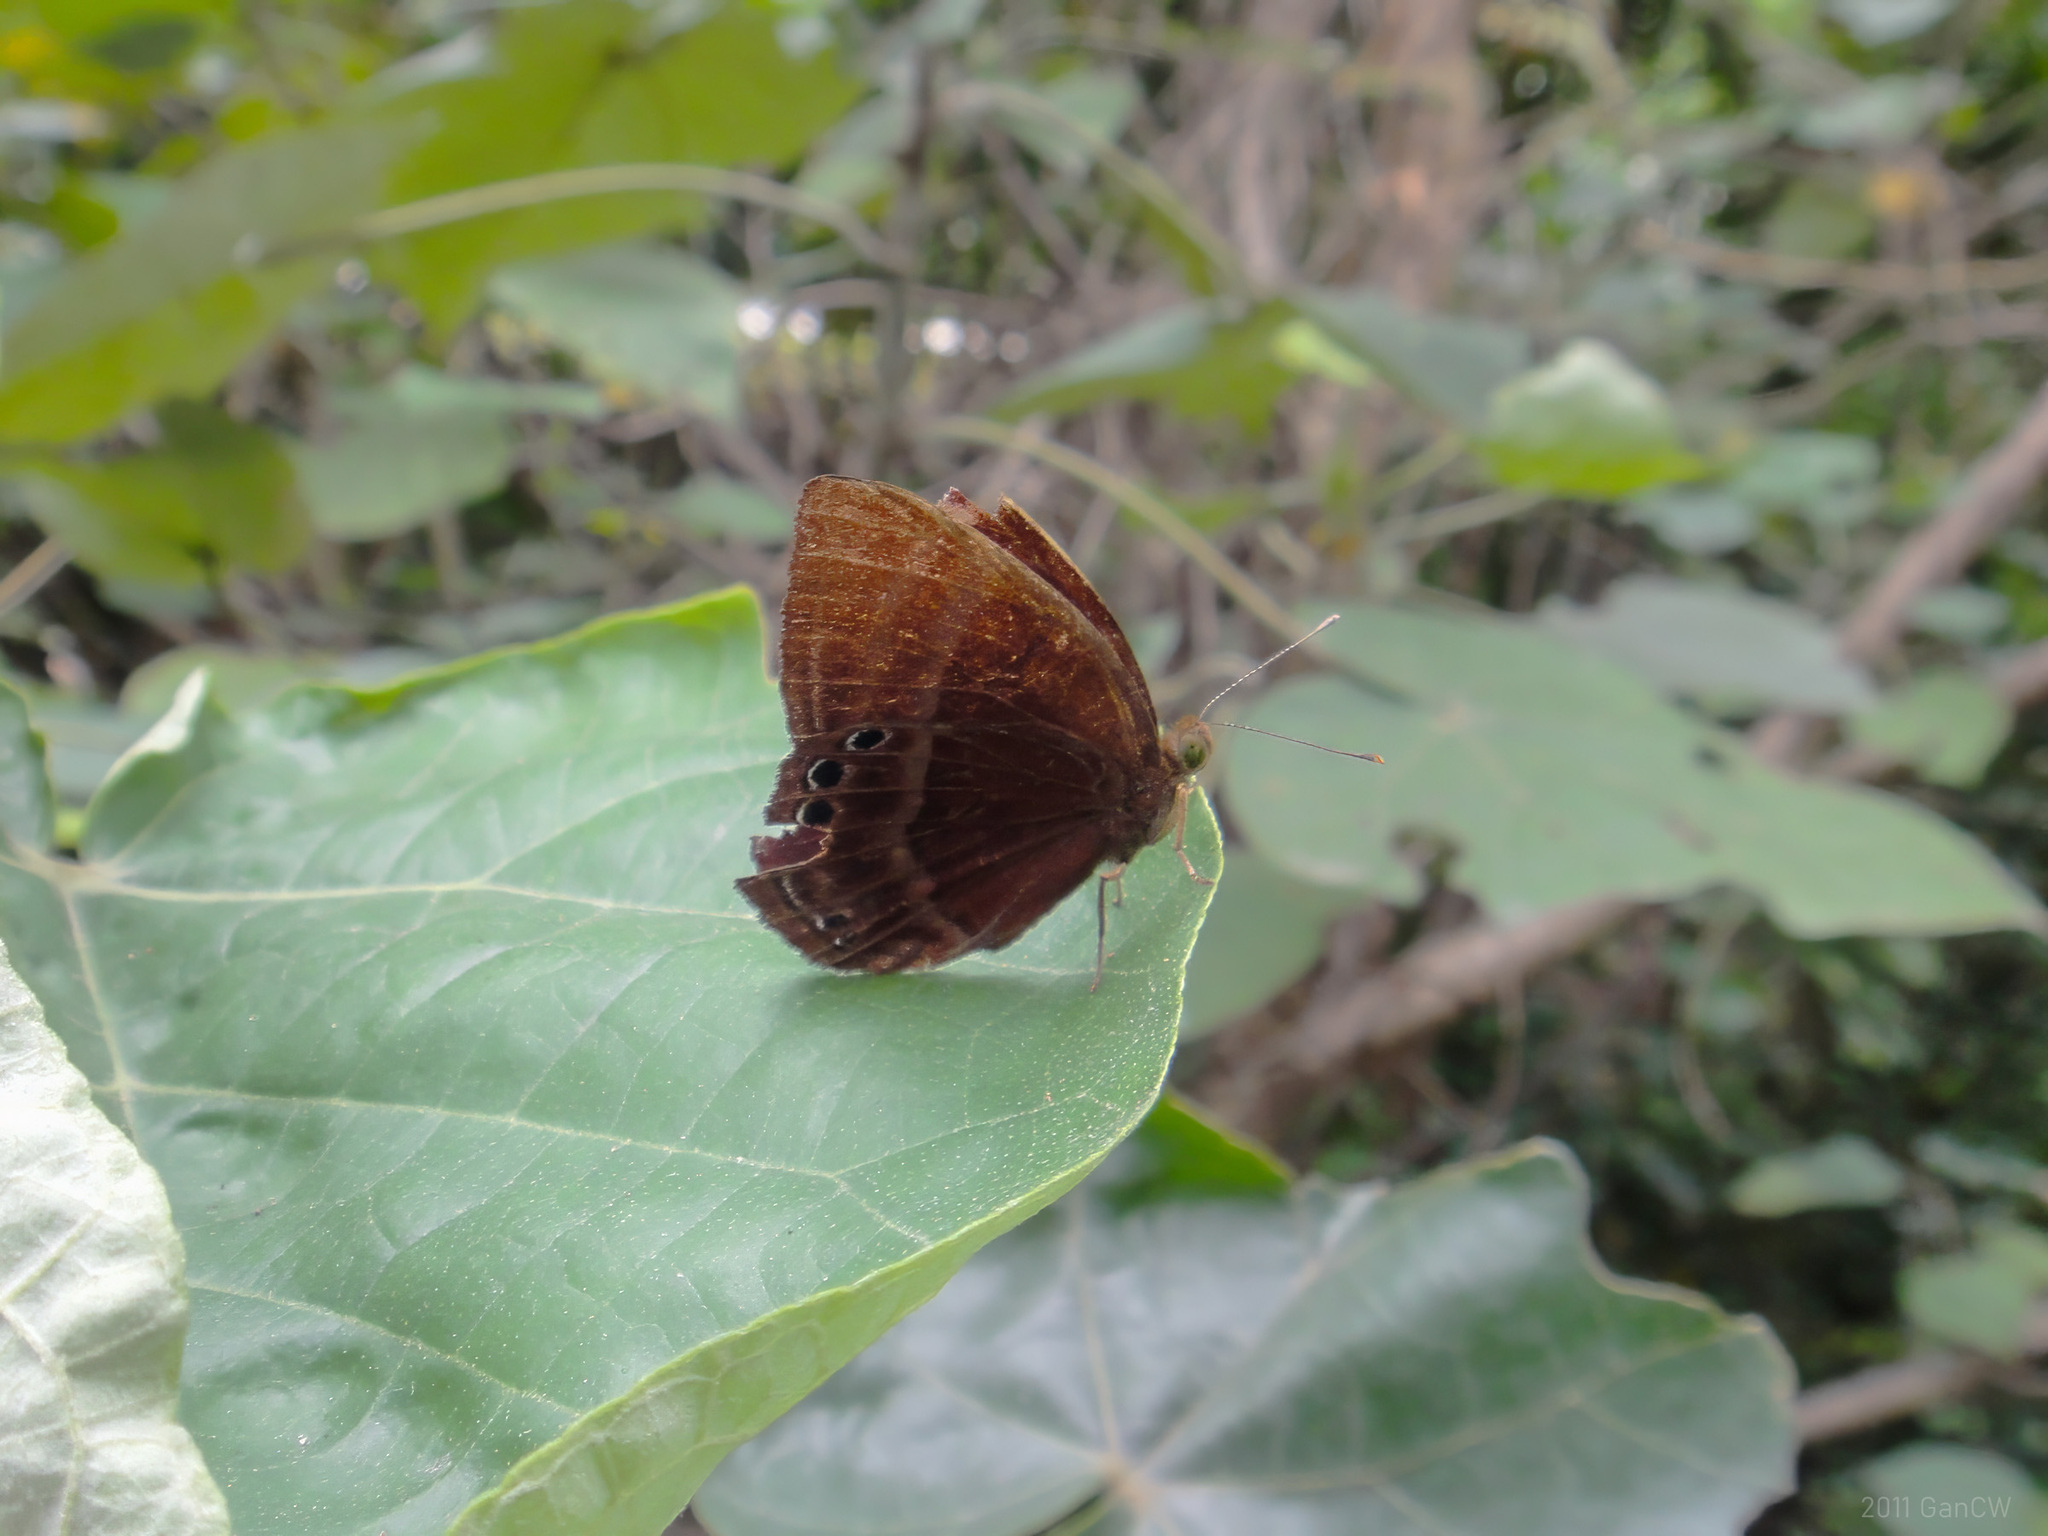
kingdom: Animalia
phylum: Arthropoda
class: Insecta
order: Lepidoptera
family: Lycaenidae
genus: Abisara
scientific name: Abisara saturata
